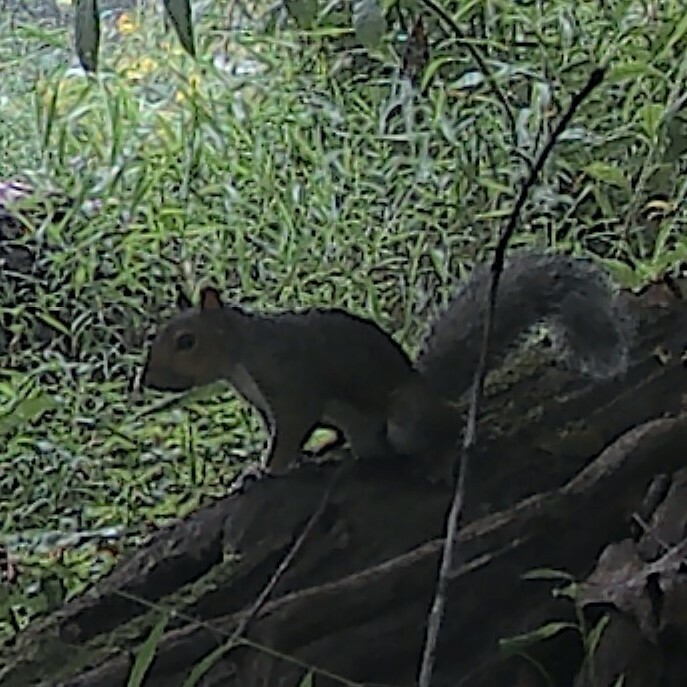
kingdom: Animalia
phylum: Chordata
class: Mammalia
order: Rodentia
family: Sciuridae
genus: Sciurus
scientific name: Sciurus carolinensis
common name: Eastern gray squirrel
